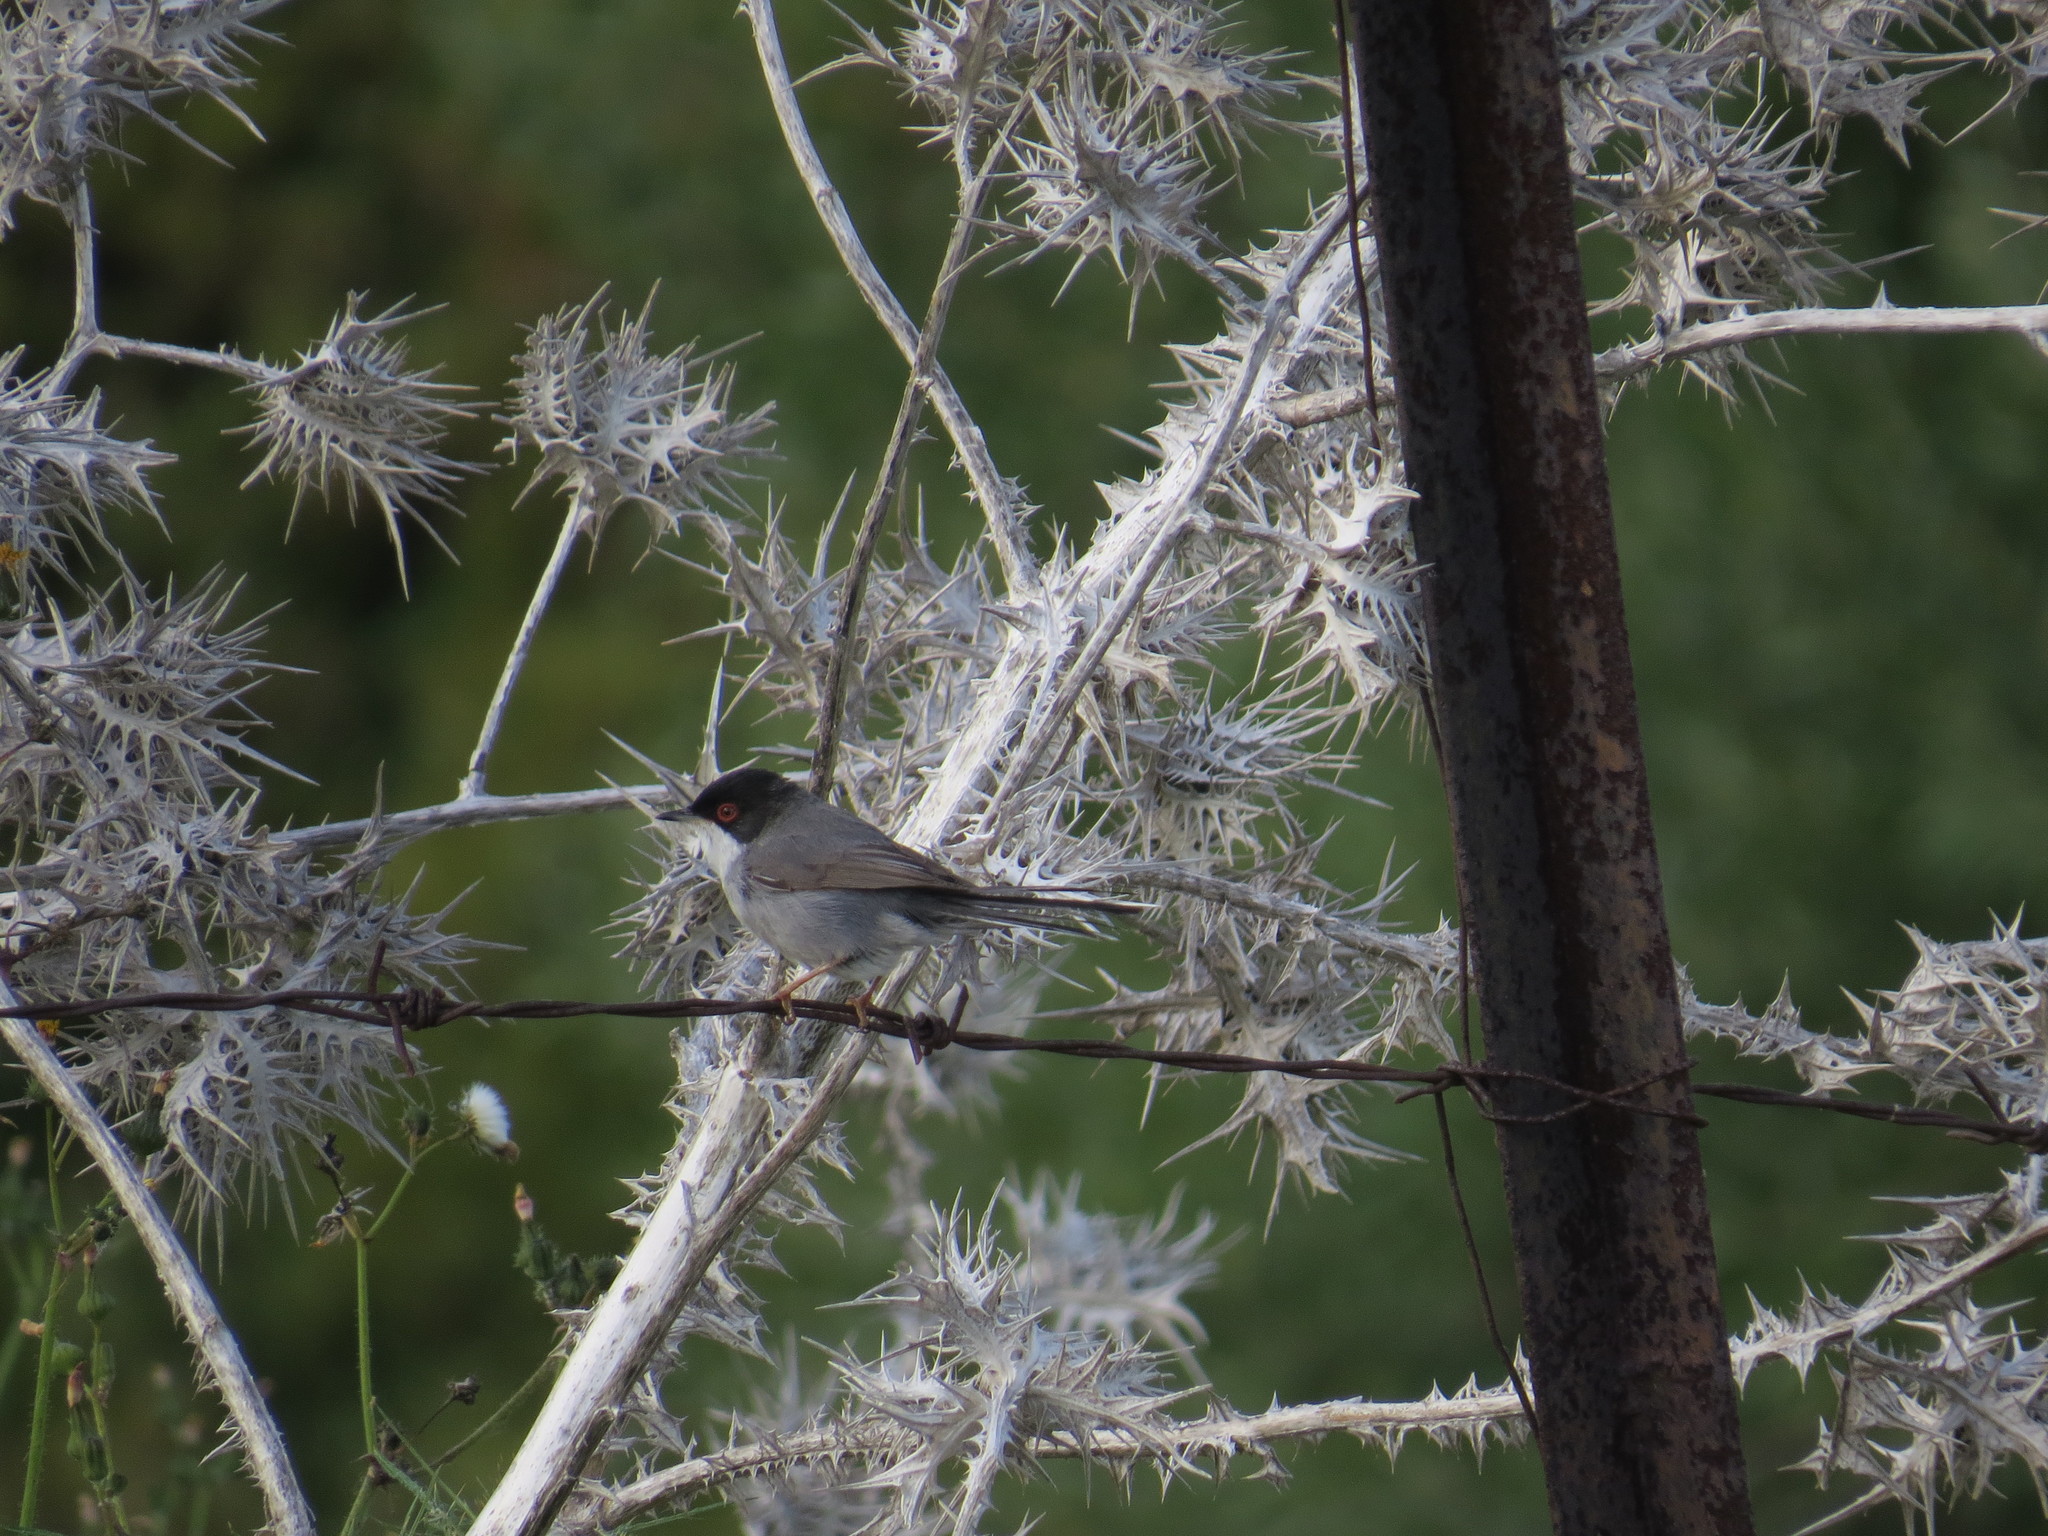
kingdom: Animalia
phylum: Chordata
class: Aves
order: Passeriformes
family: Sylviidae
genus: Curruca
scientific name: Curruca melanocephala
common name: Sardinian warbler
